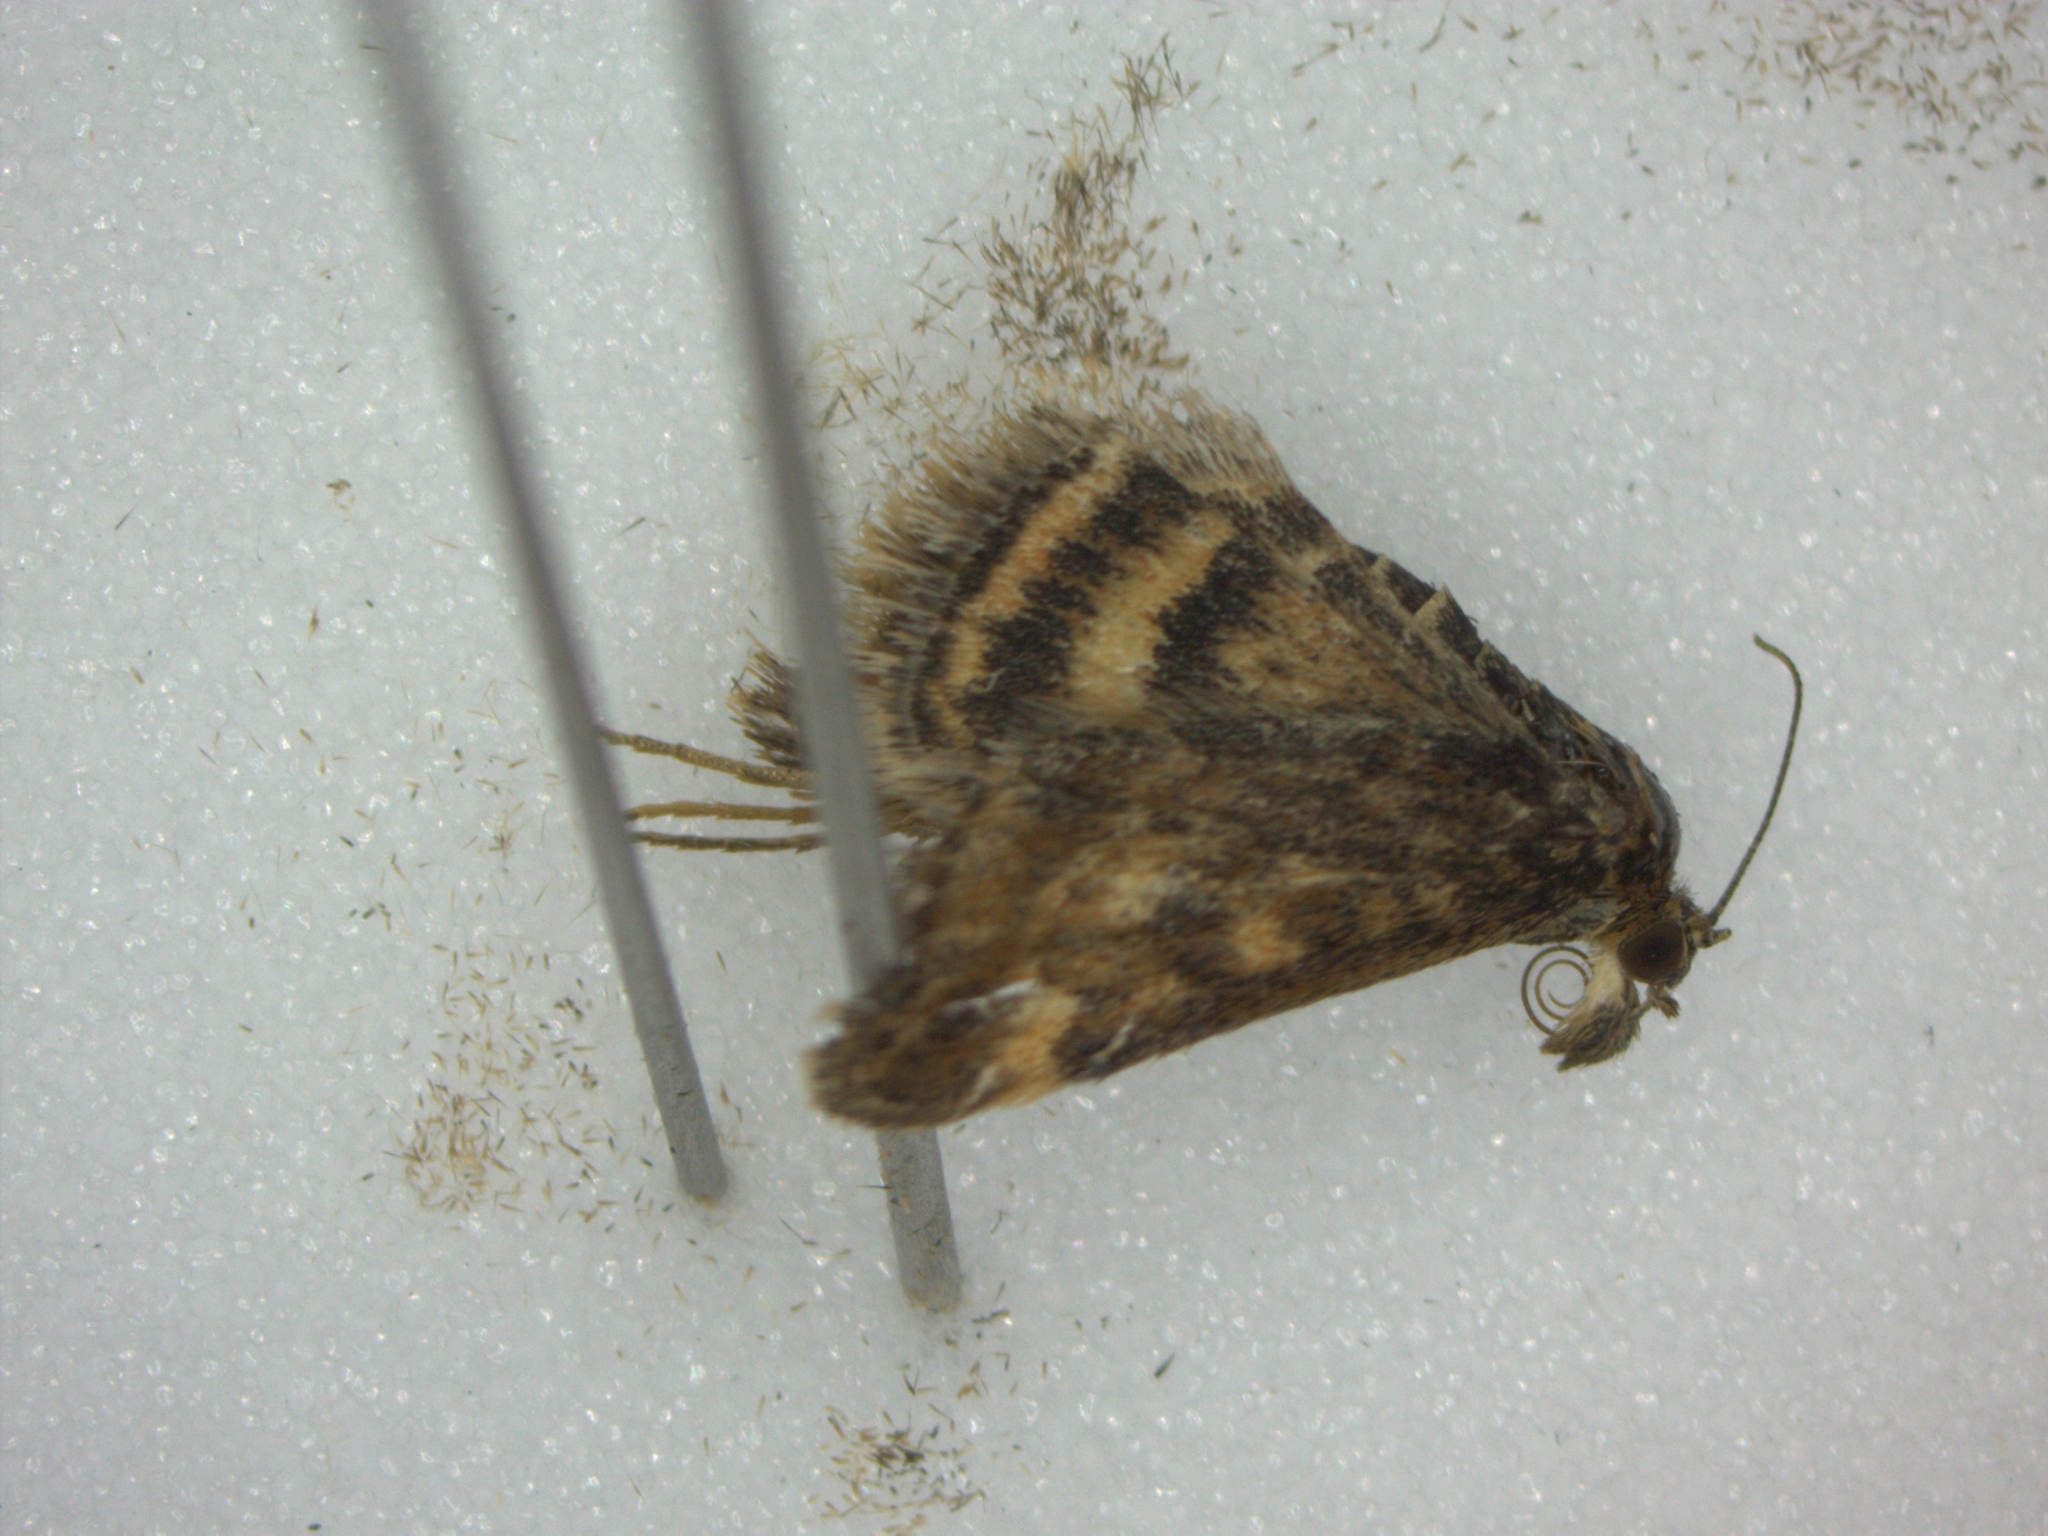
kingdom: Animalia
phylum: Arthropoda
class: Insecta
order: Lepidoptera
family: Crambidae
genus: Pyrausta
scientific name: Pyrausta despicata
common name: Straw-barred pearl
